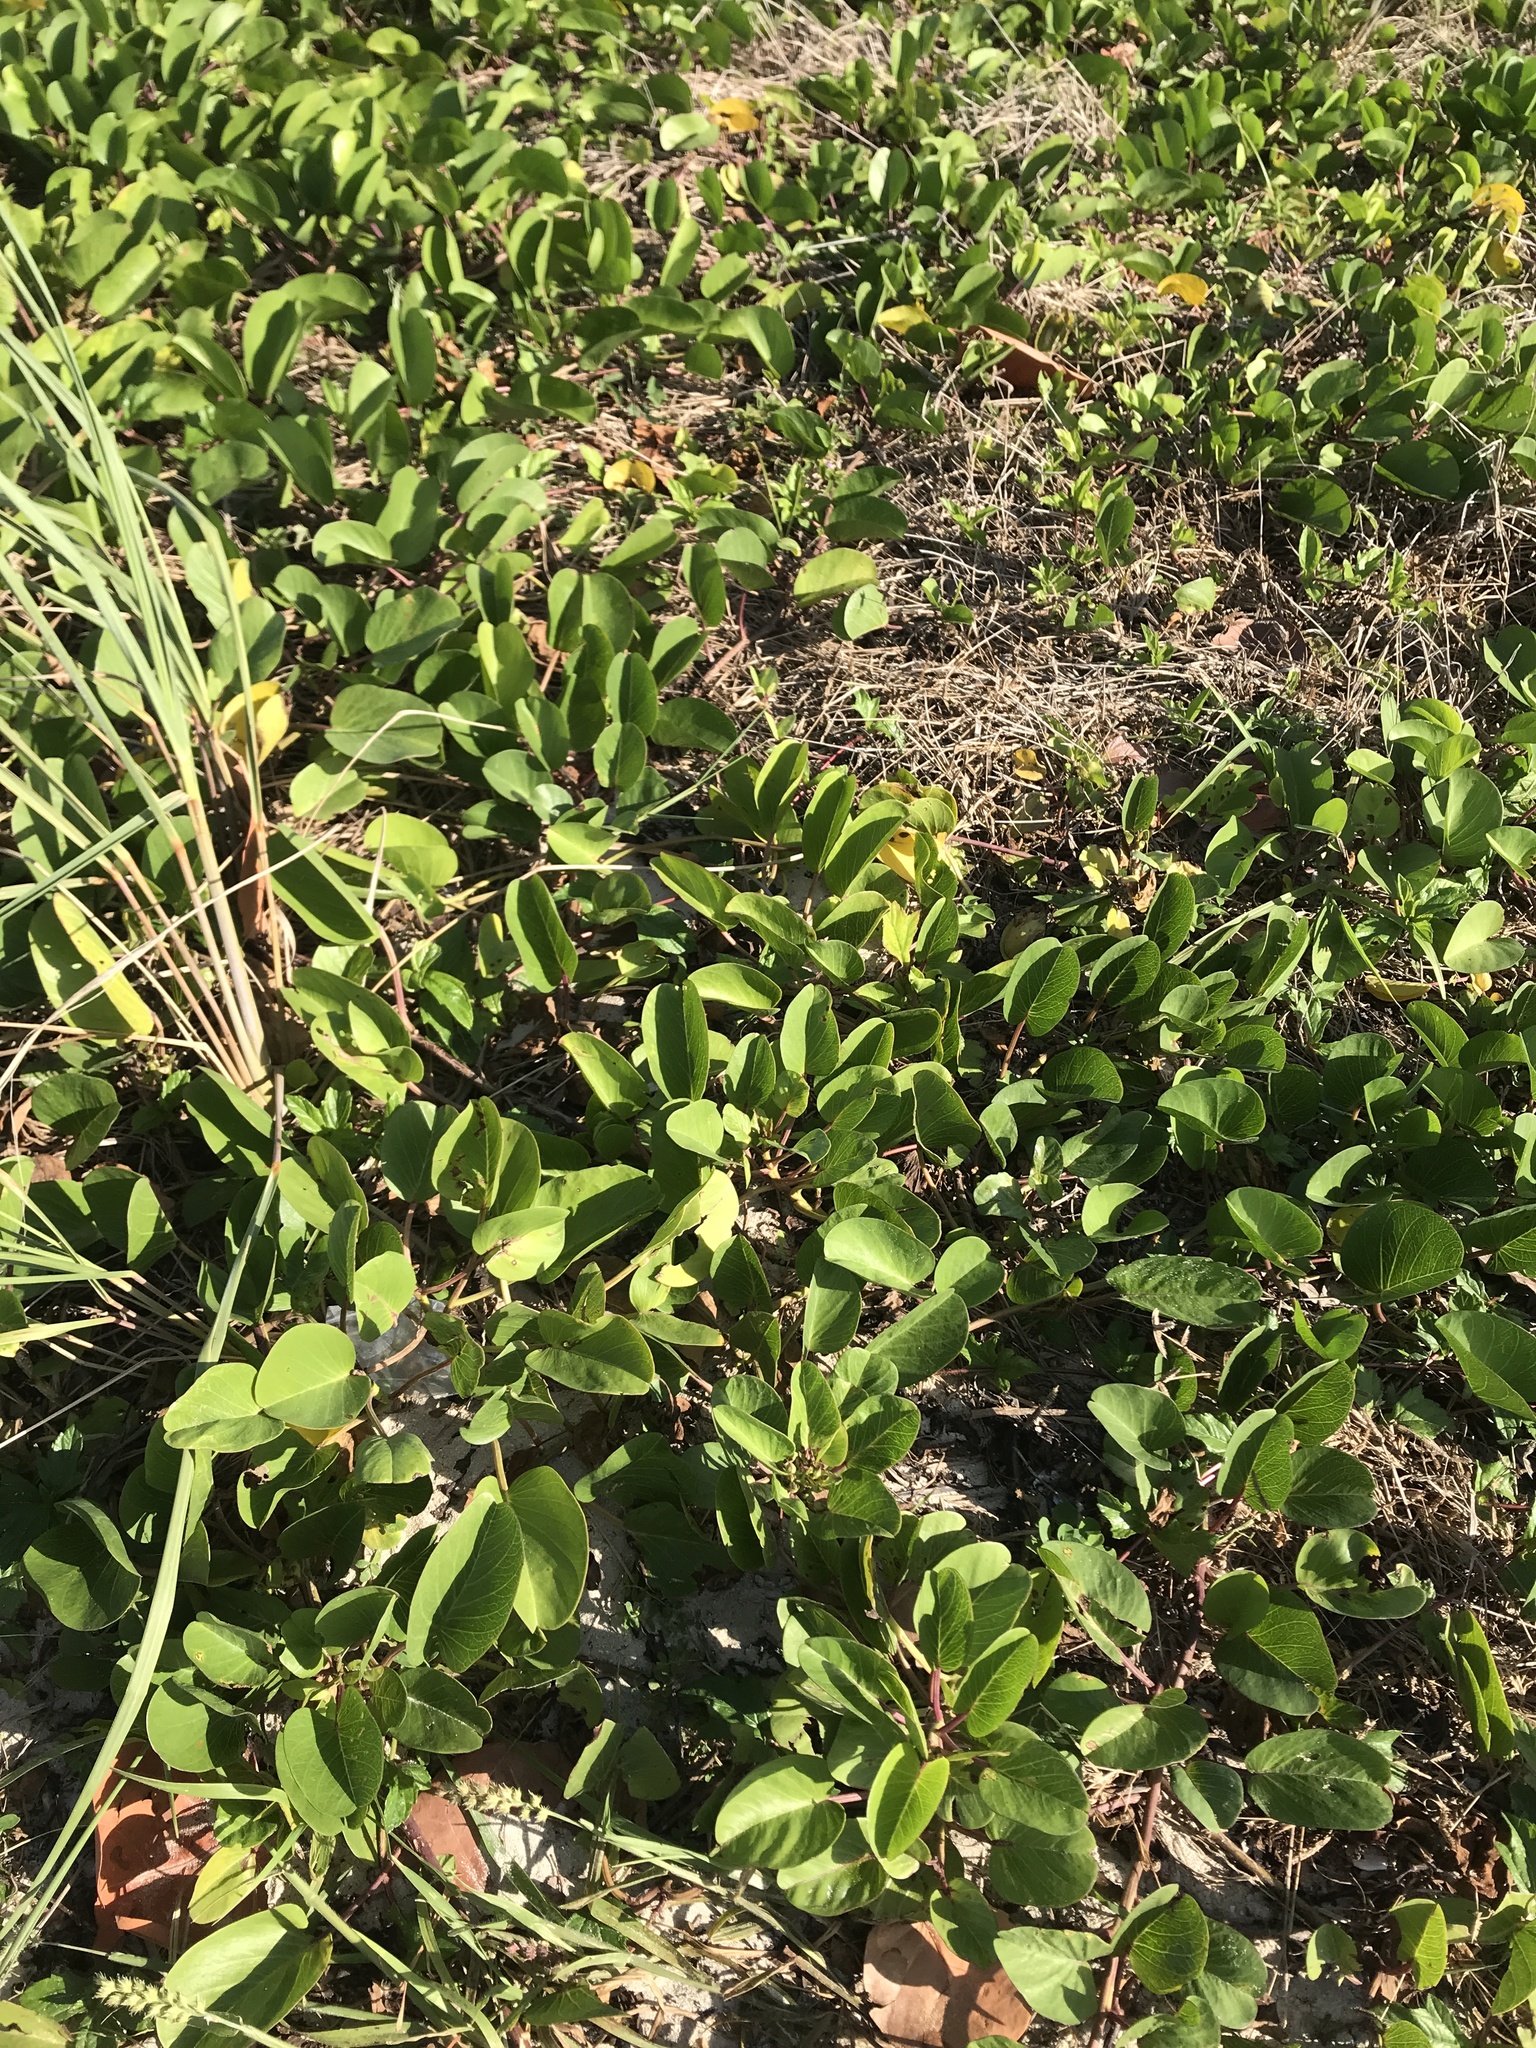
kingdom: Plantae
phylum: Tracheophyta
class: Magnoliopsida
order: Solanales
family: Convolvulaceae
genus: Ipomoea
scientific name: Ipomoea pes-caprae
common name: Beach morning glory
